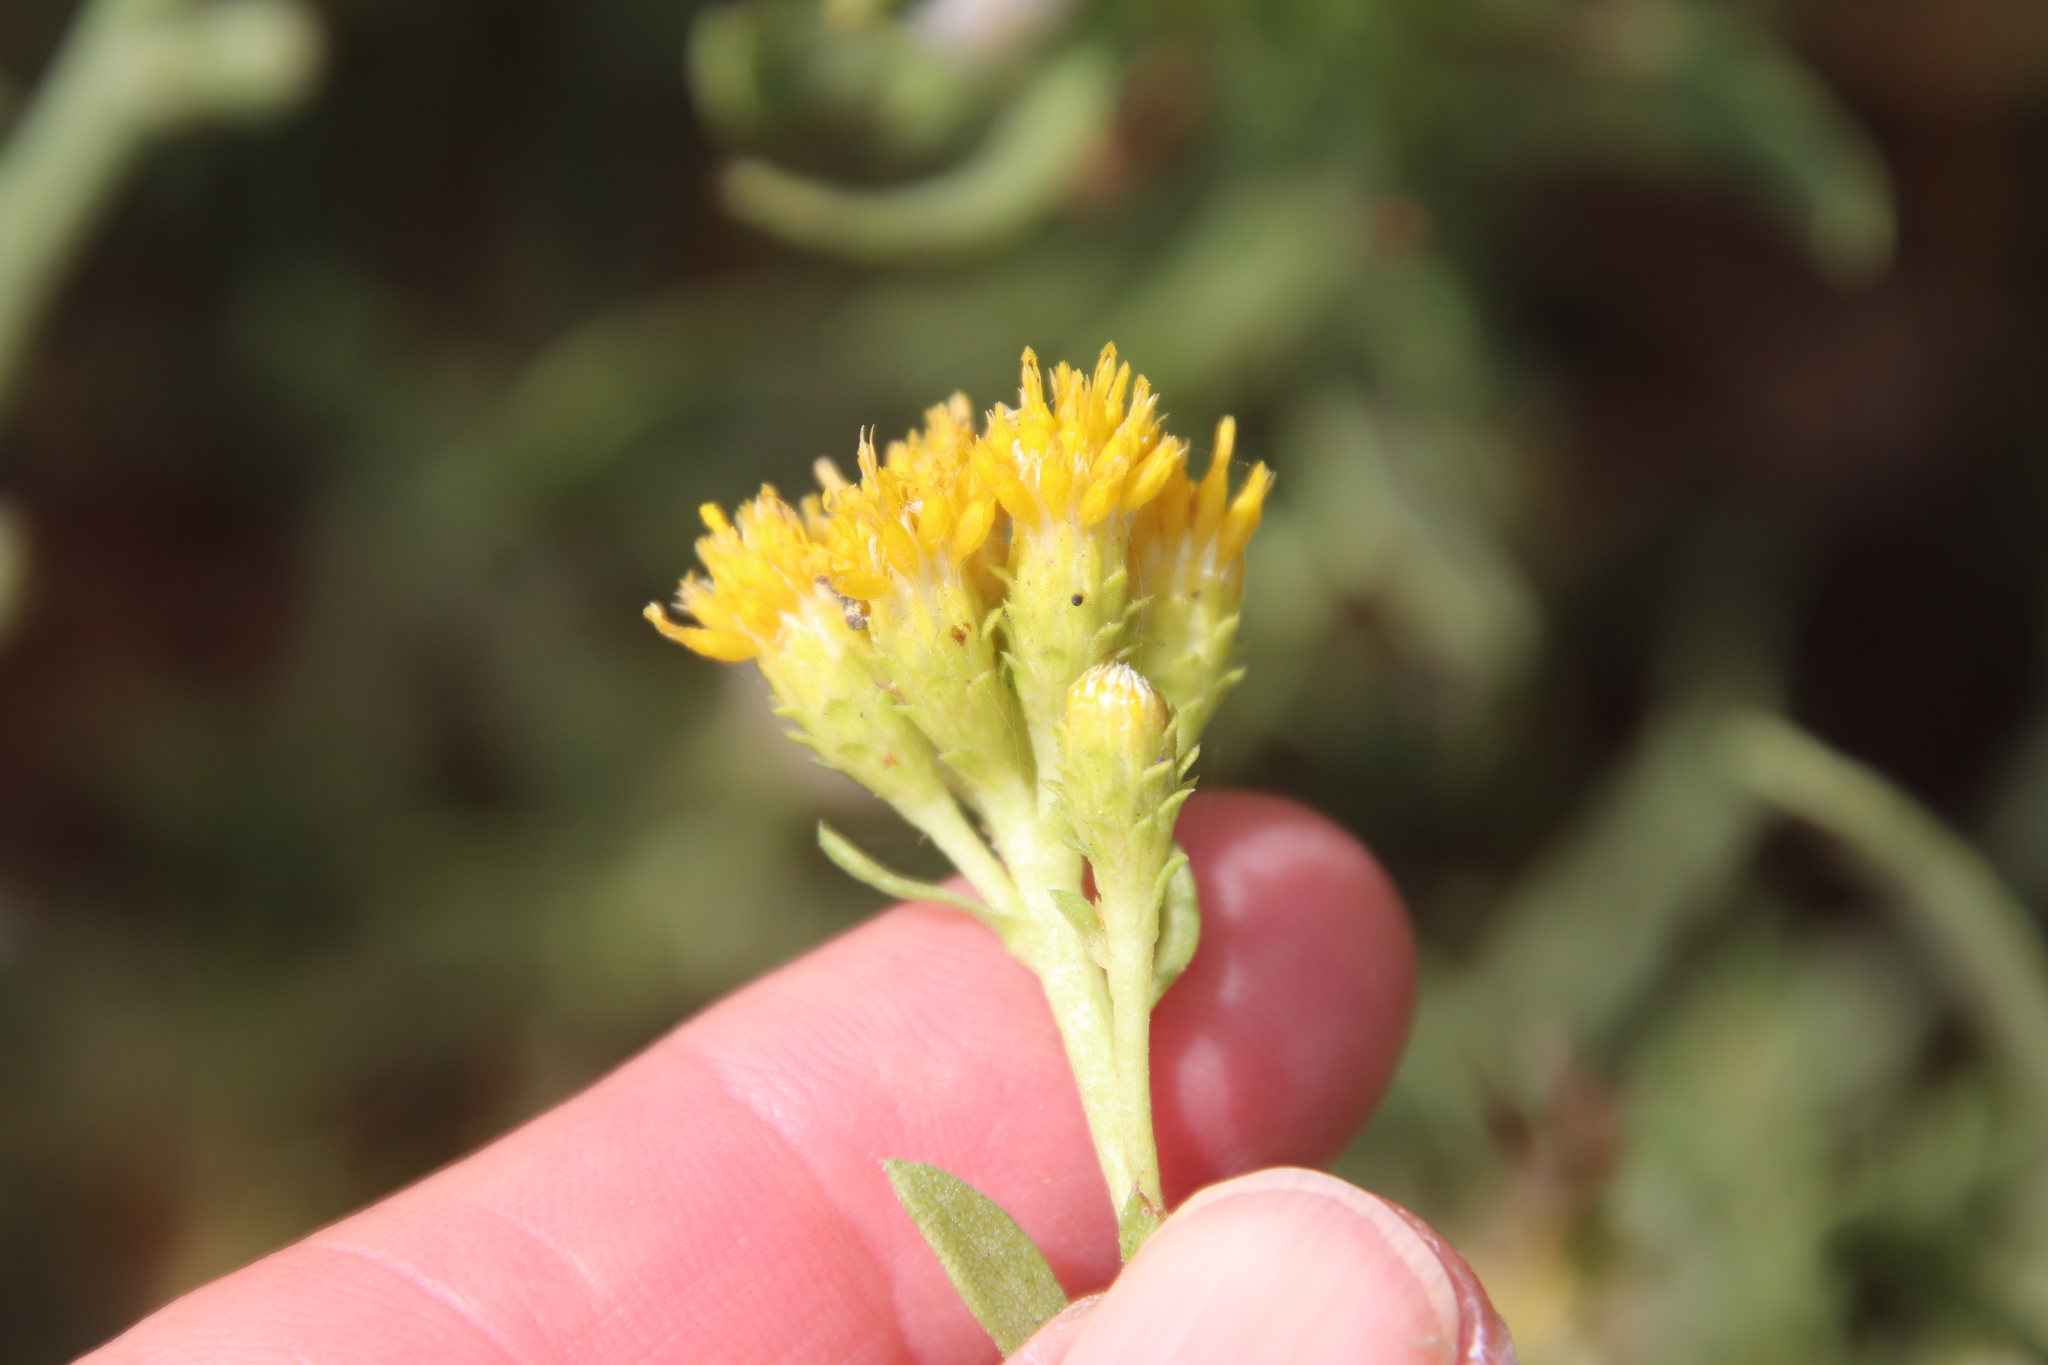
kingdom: Plantae
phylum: Tracheophyta
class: Magnoliopsida
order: Asterales
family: Asteraceae
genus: Isocoma
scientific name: Isocoma menziesii
